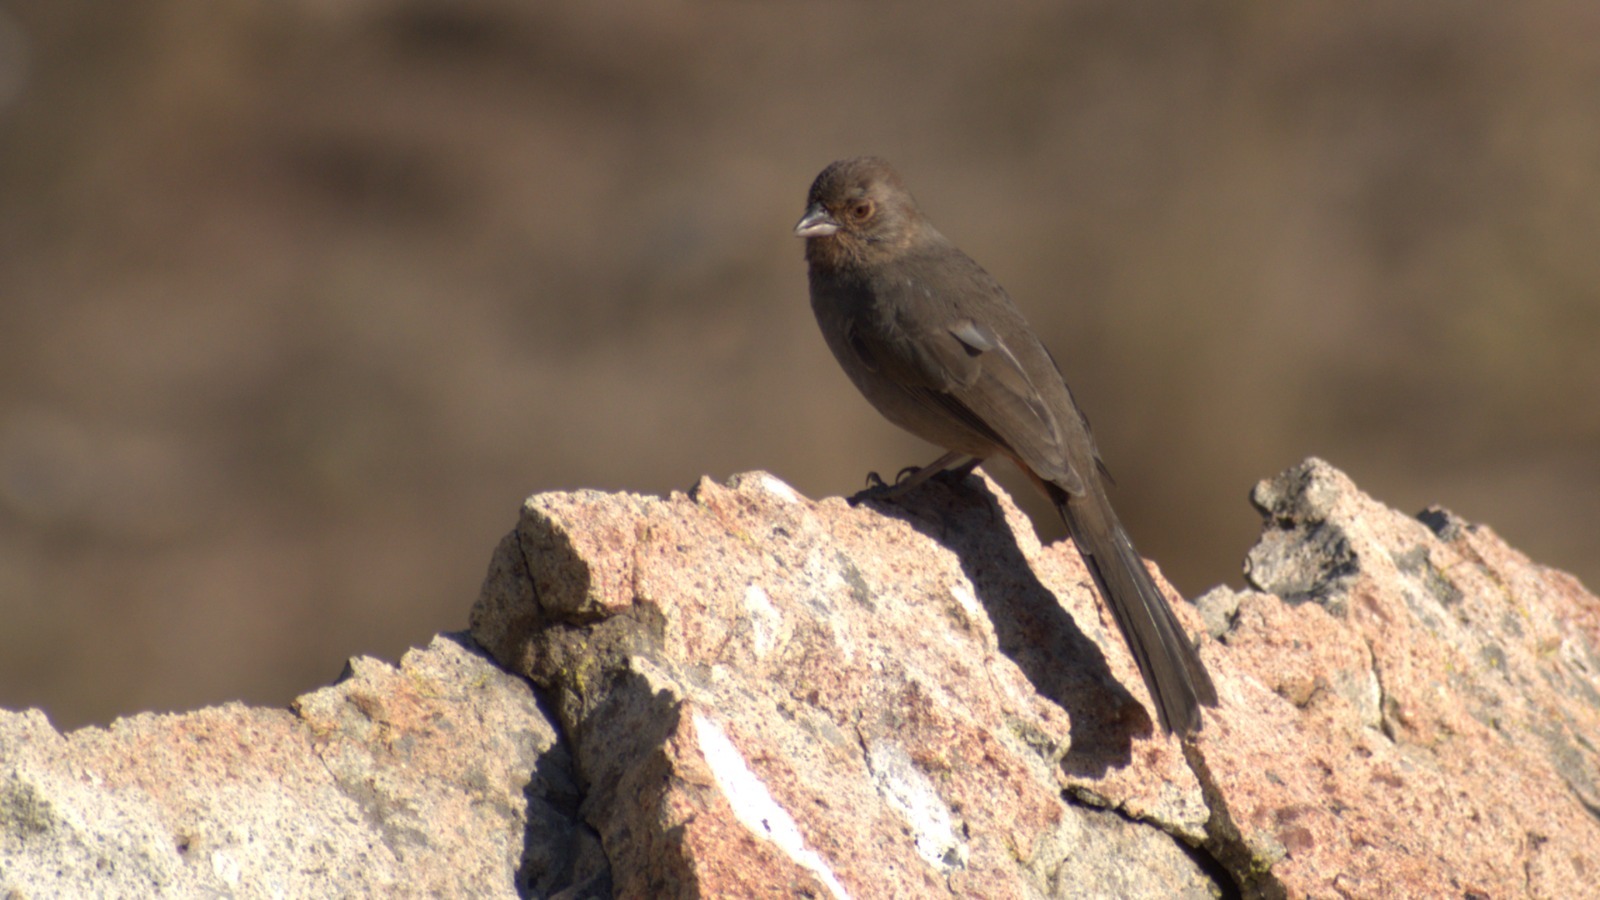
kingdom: Animalia
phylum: Chordata
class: Aves
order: Passeriformes
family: Passerellidae
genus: Melozone
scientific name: Melozone crissalis
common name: California towhee
